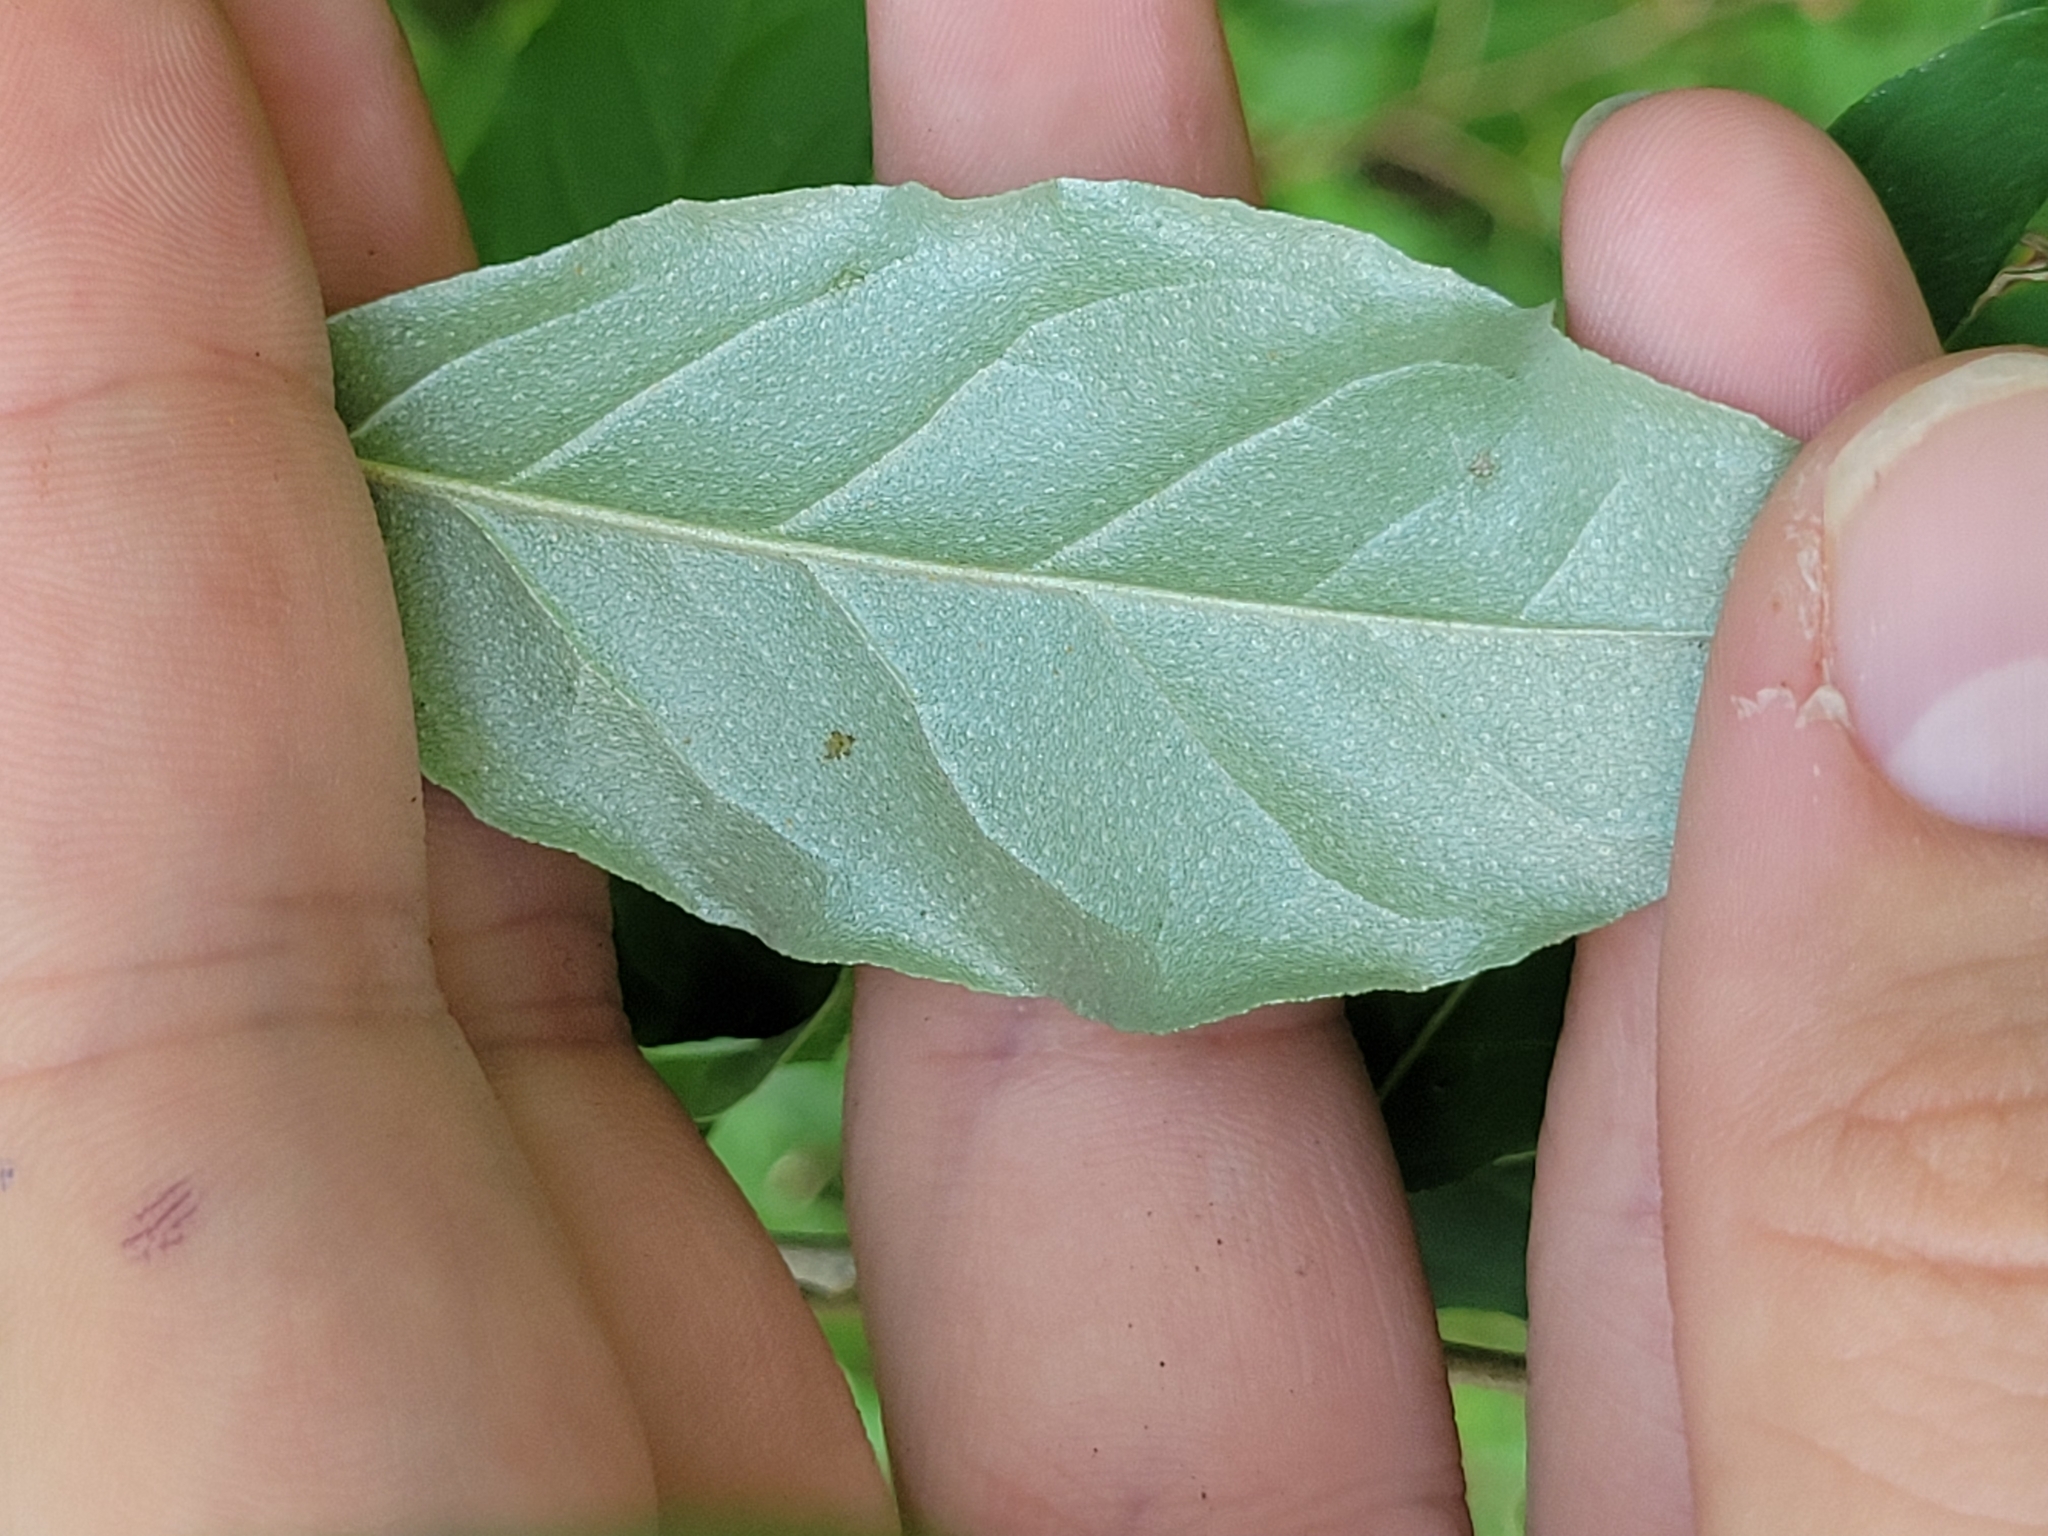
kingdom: Plantae
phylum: Tracheophyta
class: Magnoliopsida
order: Rosales
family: Elaeagnaceae
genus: Elaeagnus
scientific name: Elaeagnus umbellata
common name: Autumn olive
